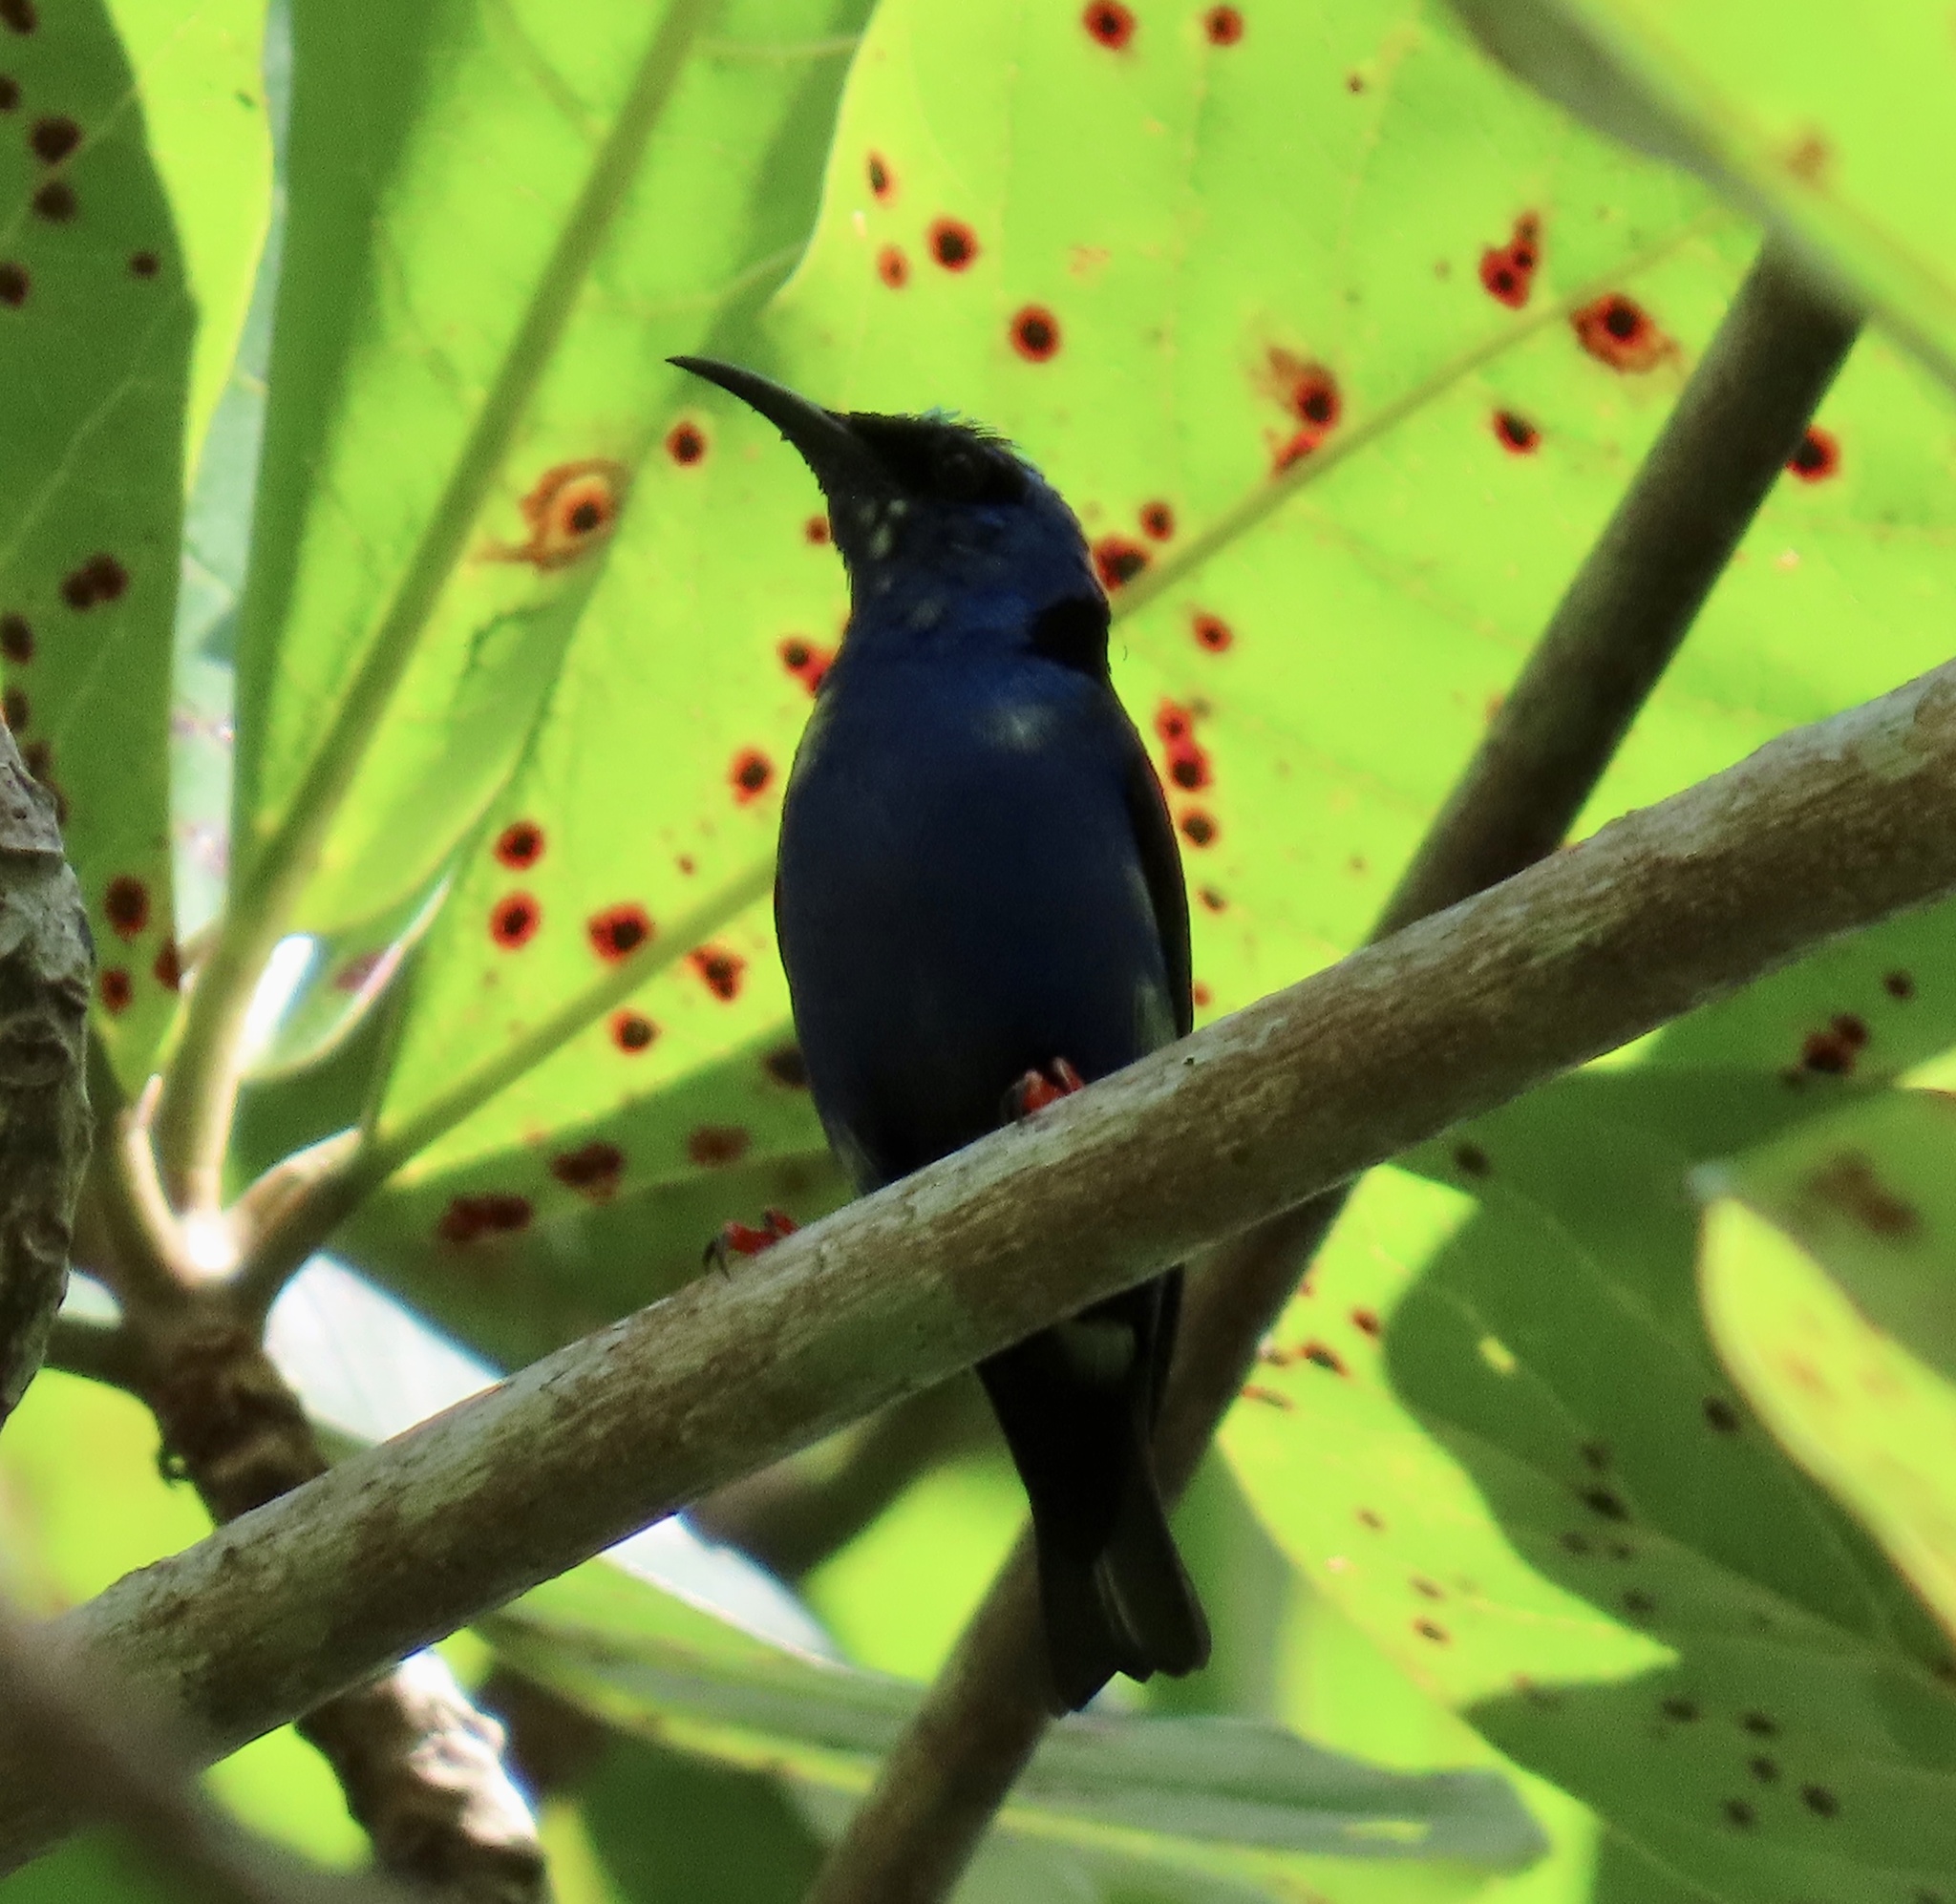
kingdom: Animalia
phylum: Chordata
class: Aves
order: Passeriformes
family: Thraupidae
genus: Cyanerpes
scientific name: Cyanerpes cyaneus
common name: Red-legged honeycreeper
